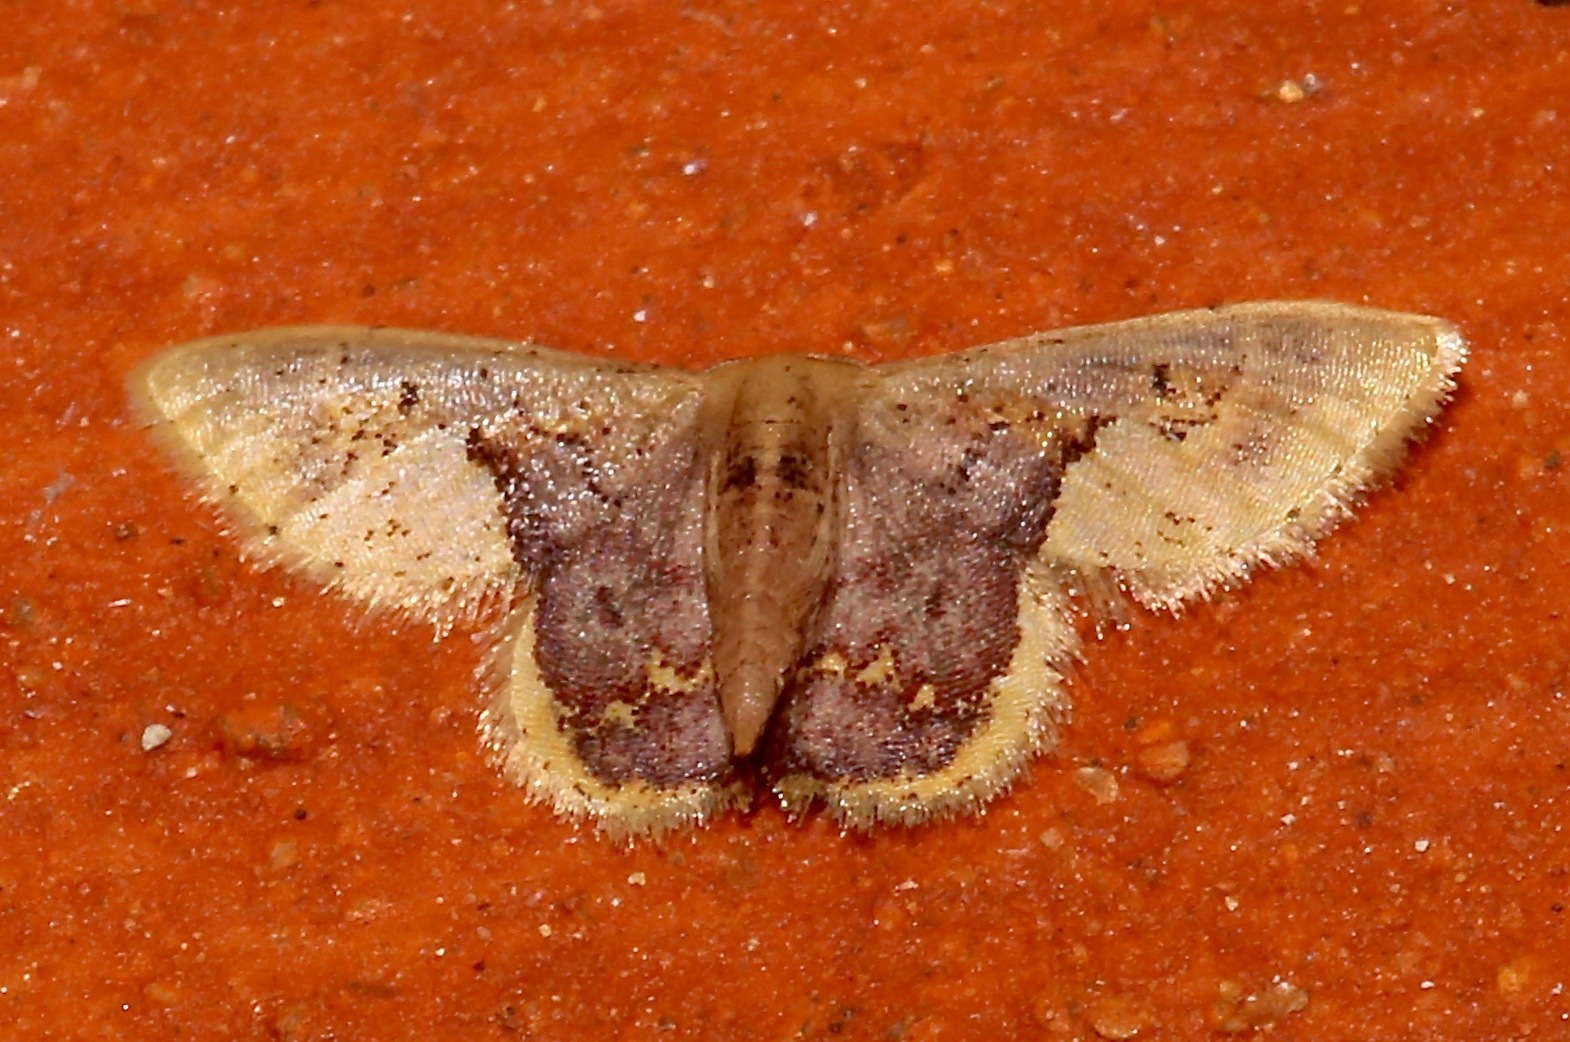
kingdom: Animalia
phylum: Arthropoda
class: Insecta
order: Lepidoptera
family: Geometridae
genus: Idaea
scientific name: Idaea ellisca
